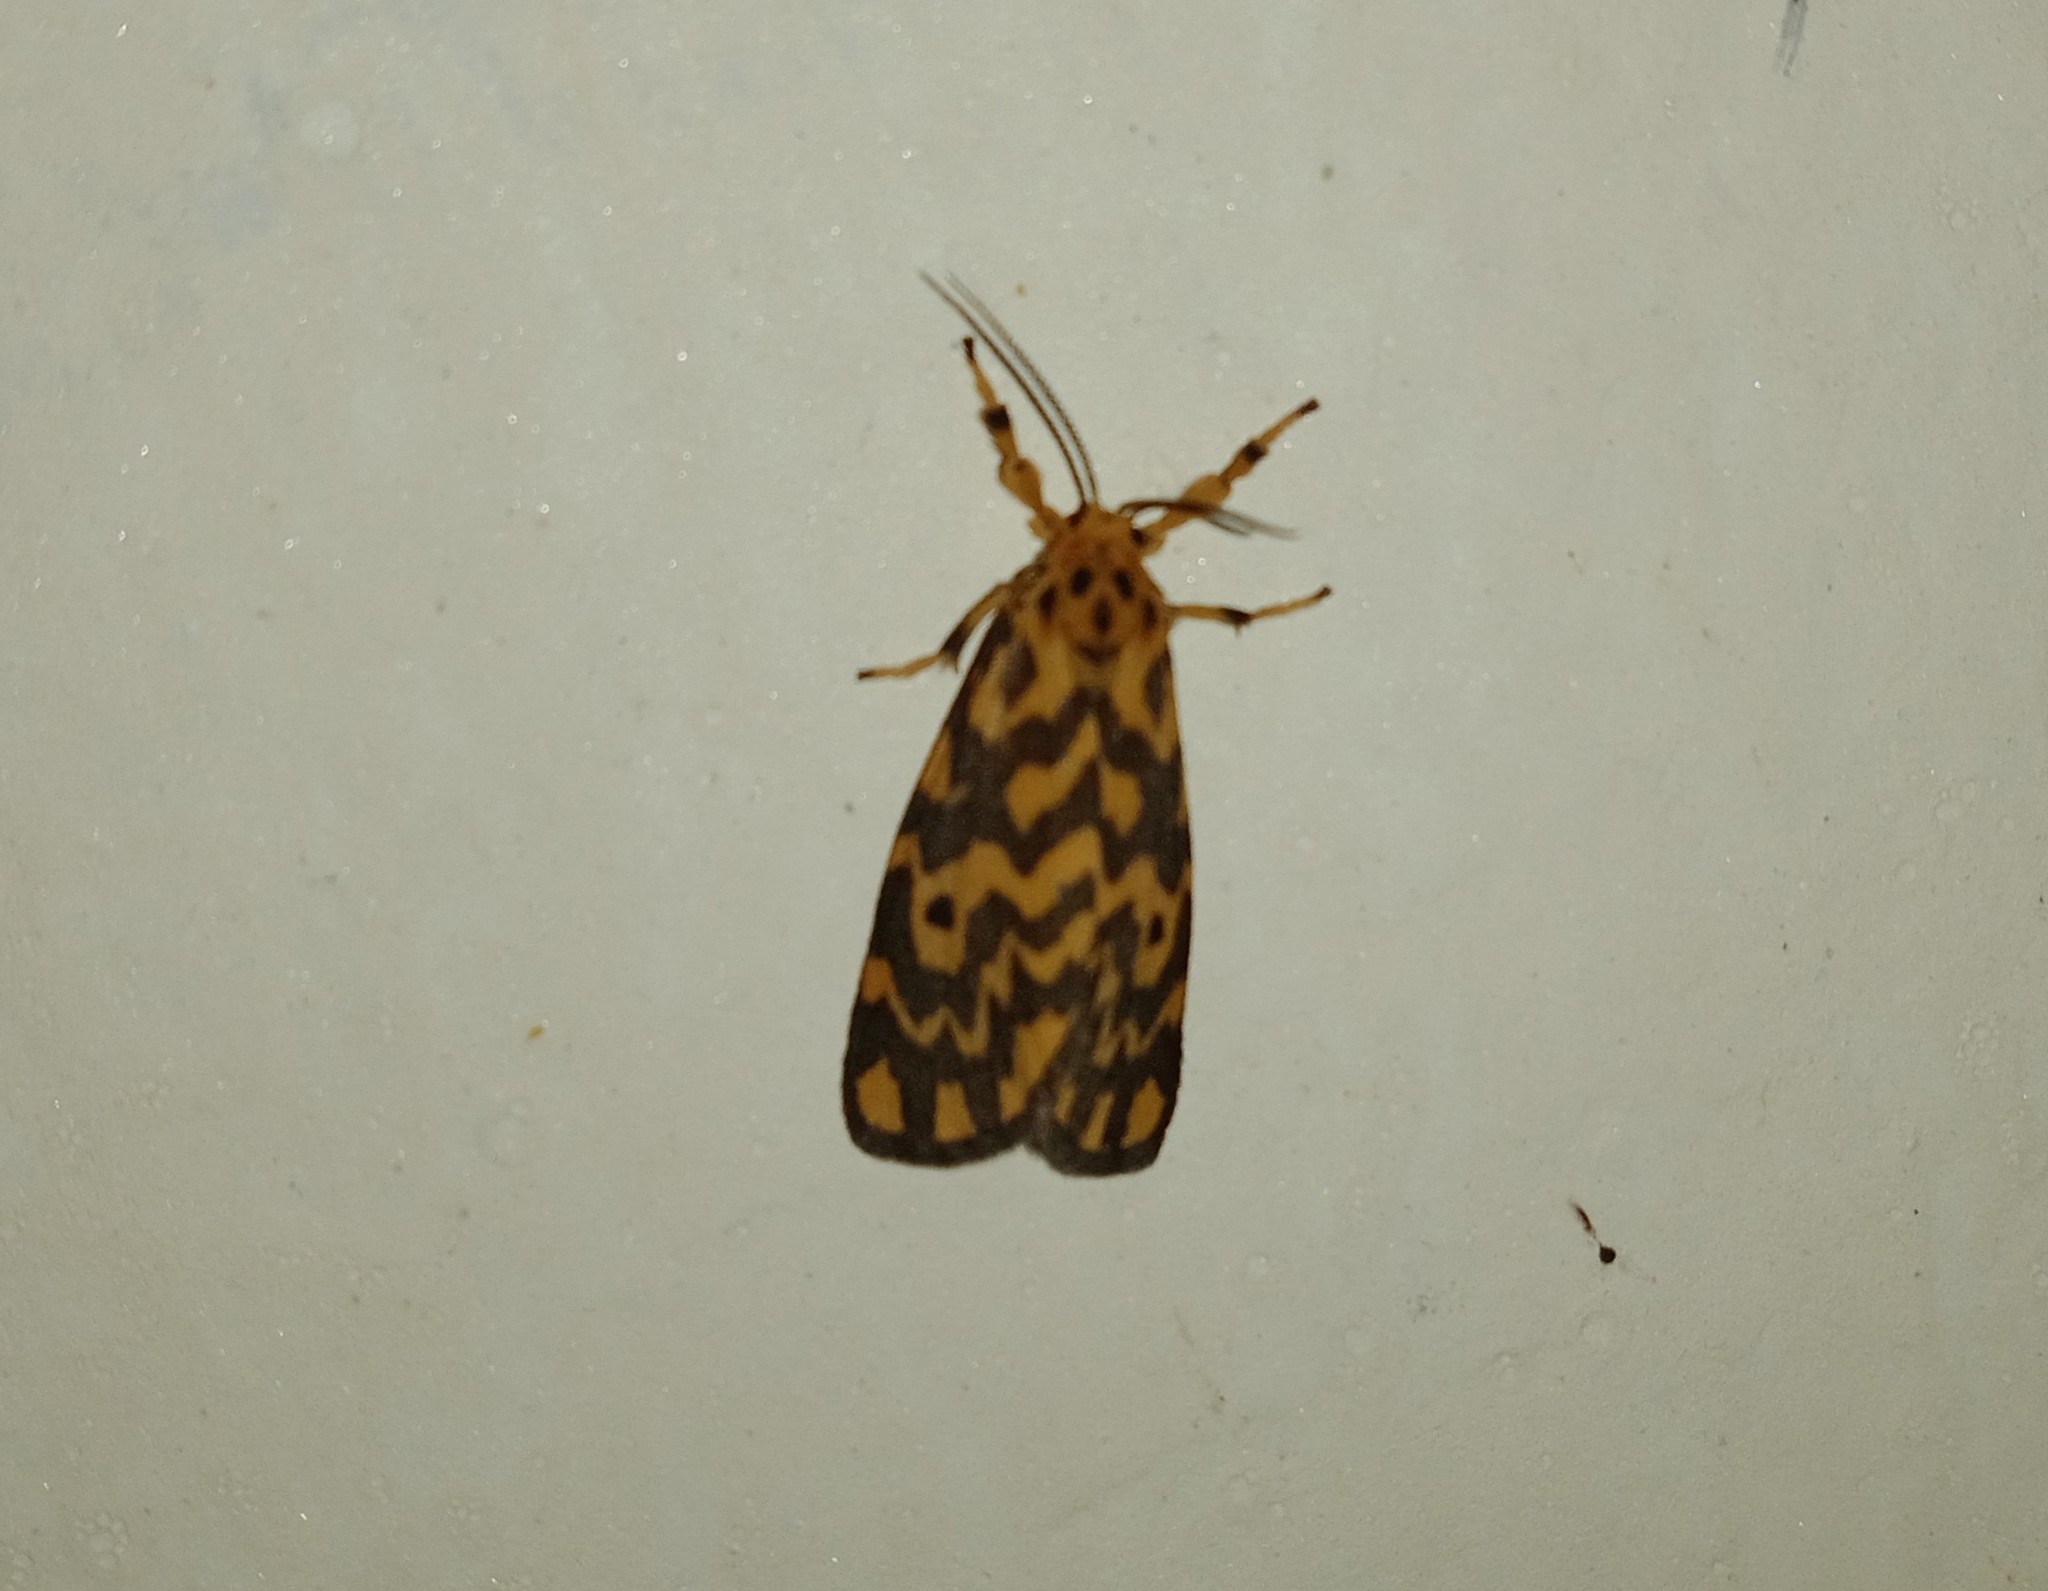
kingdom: Animalia
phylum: Arthropoda
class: Insecta
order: Lepidoptera
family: Erebidae
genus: Nepita
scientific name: Nepita conferta
